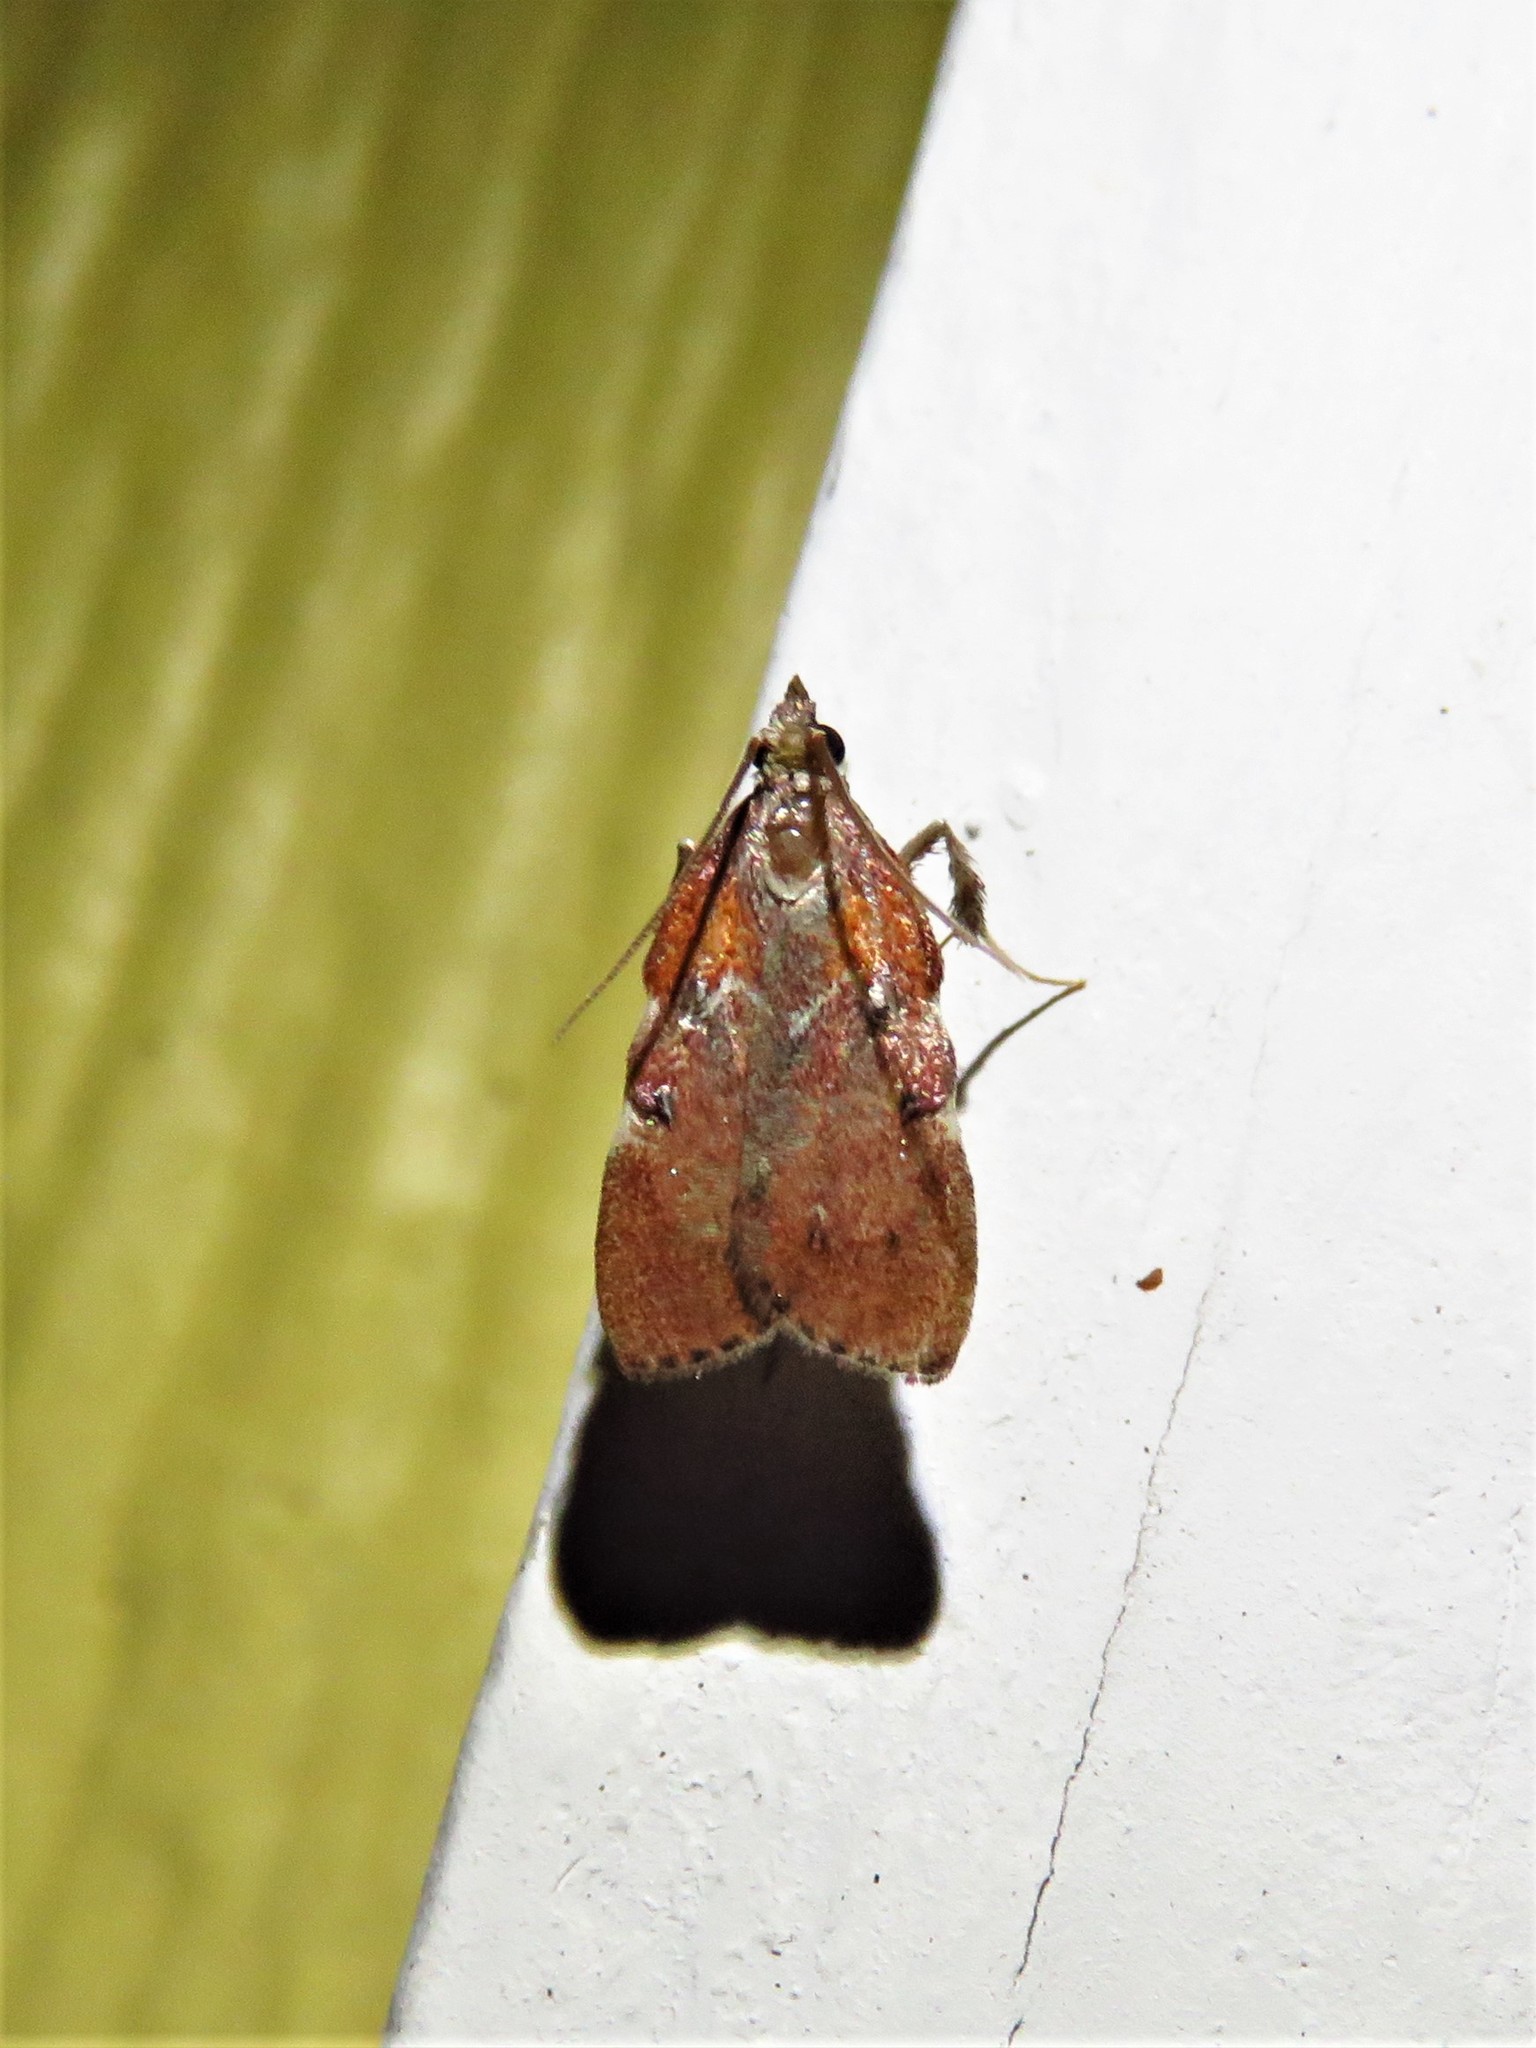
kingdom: Animalia
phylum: Arthropoda
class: Insecta
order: Lepidoptera
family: Pyralidae
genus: Galasa
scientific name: Galasa nigrinodis
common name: Boxwood leaftier moth
